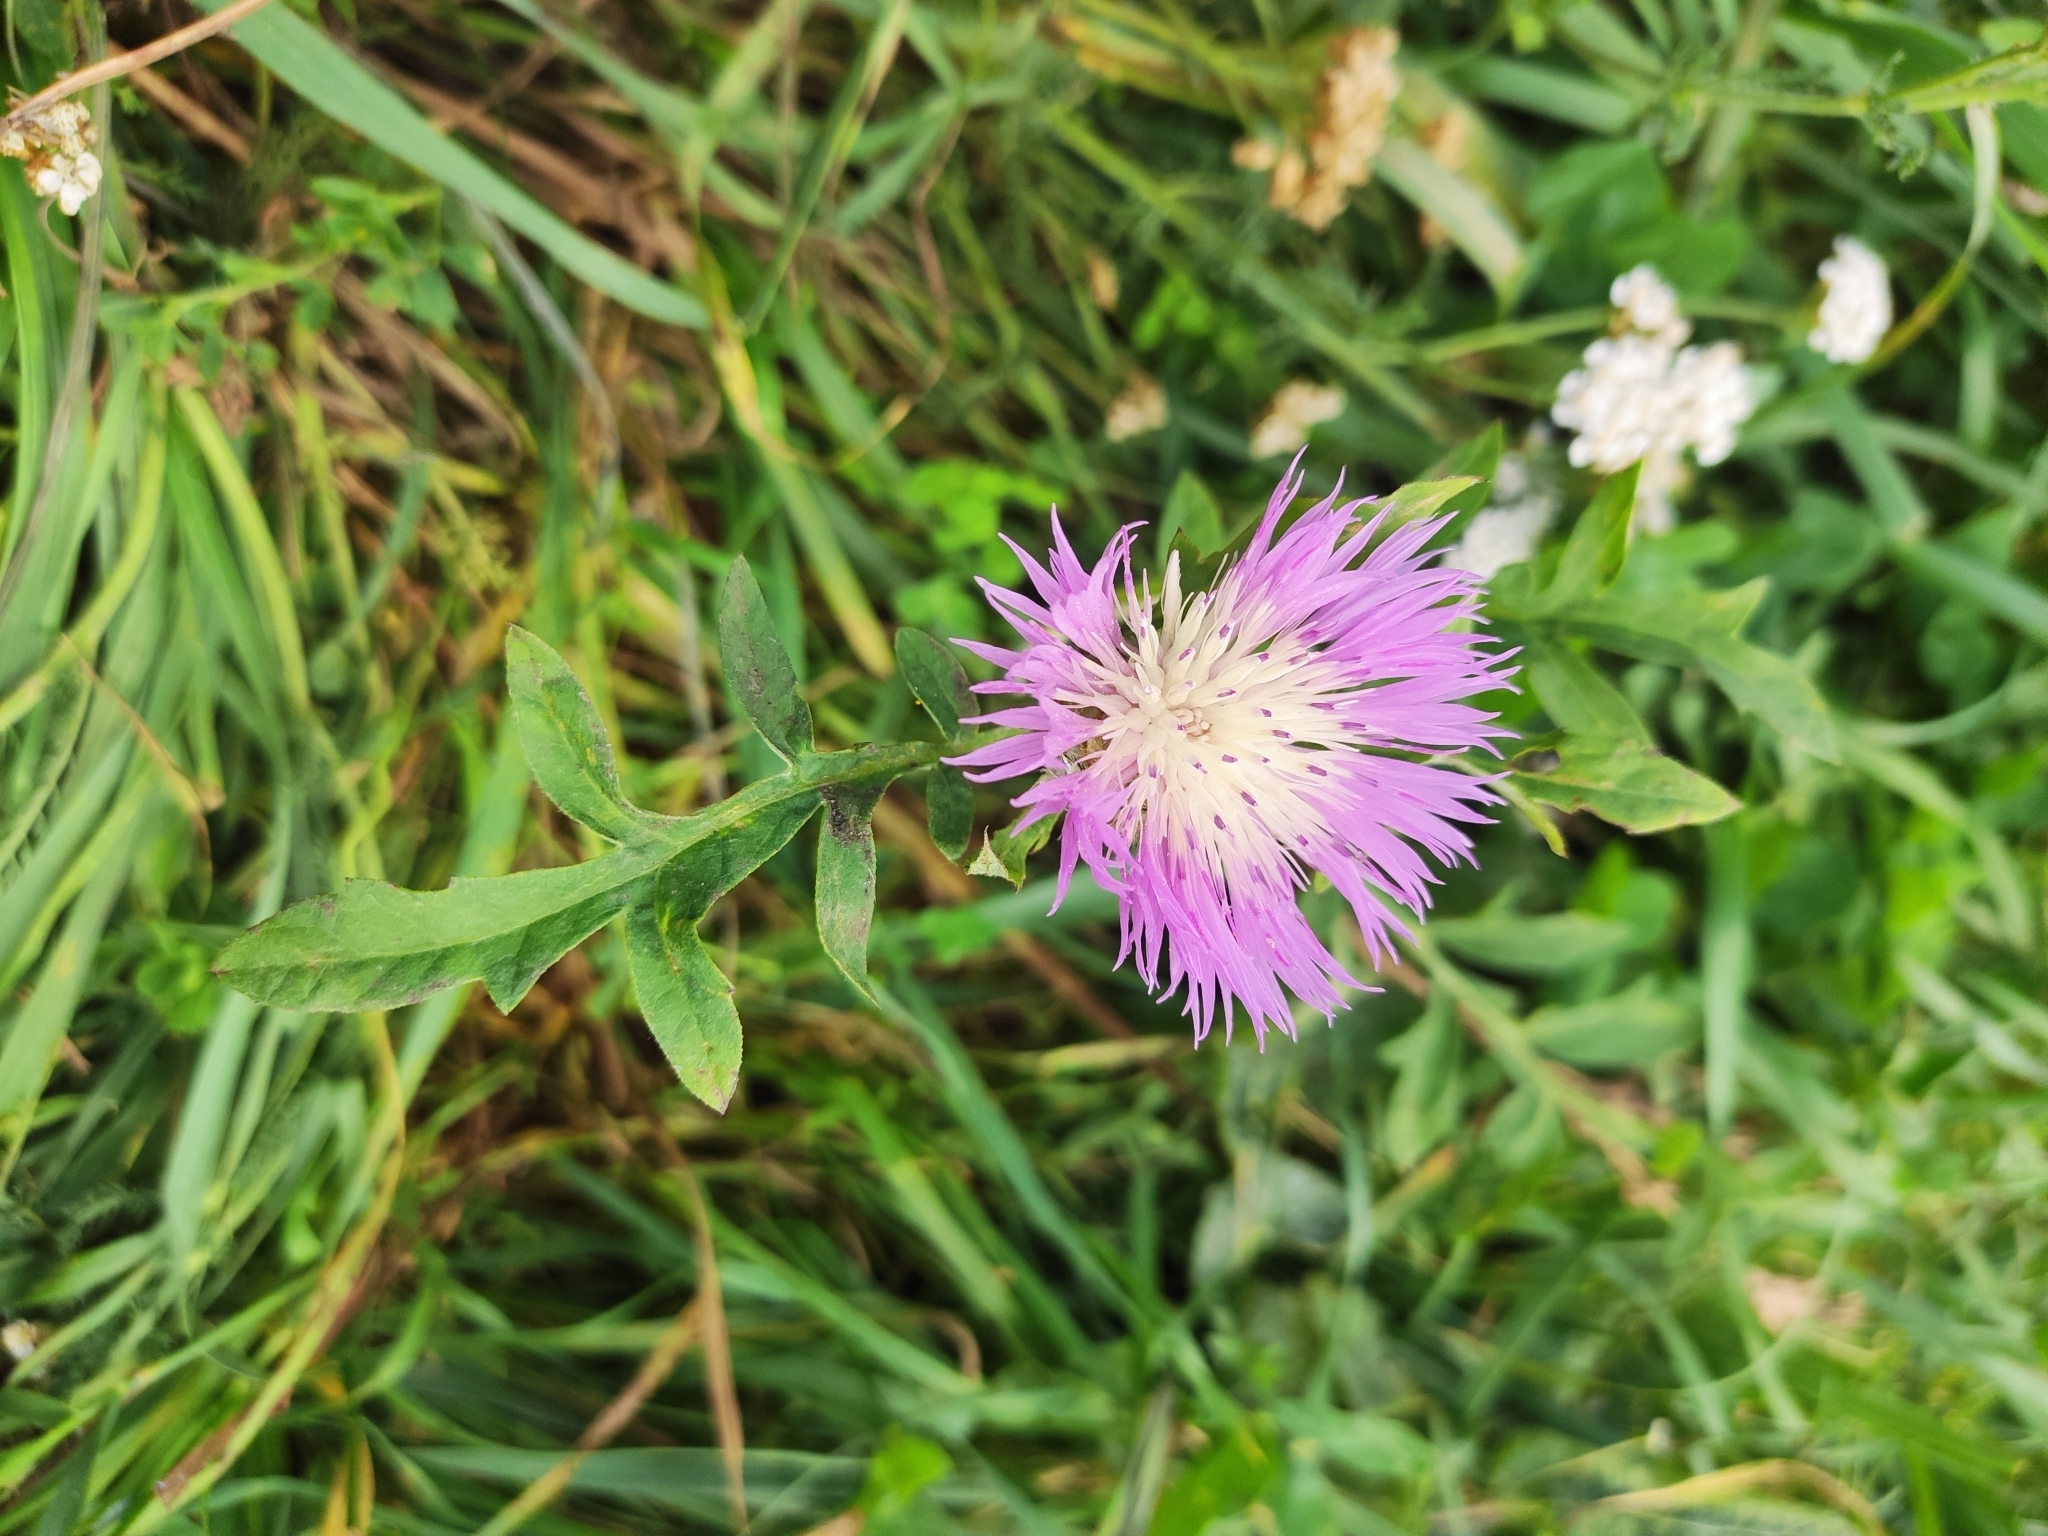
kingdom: Plantae
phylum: Tracheophyta
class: Magnoliopsida
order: Asterales
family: Asteraceae
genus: Psephellus
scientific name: Psephellus dealbatus
